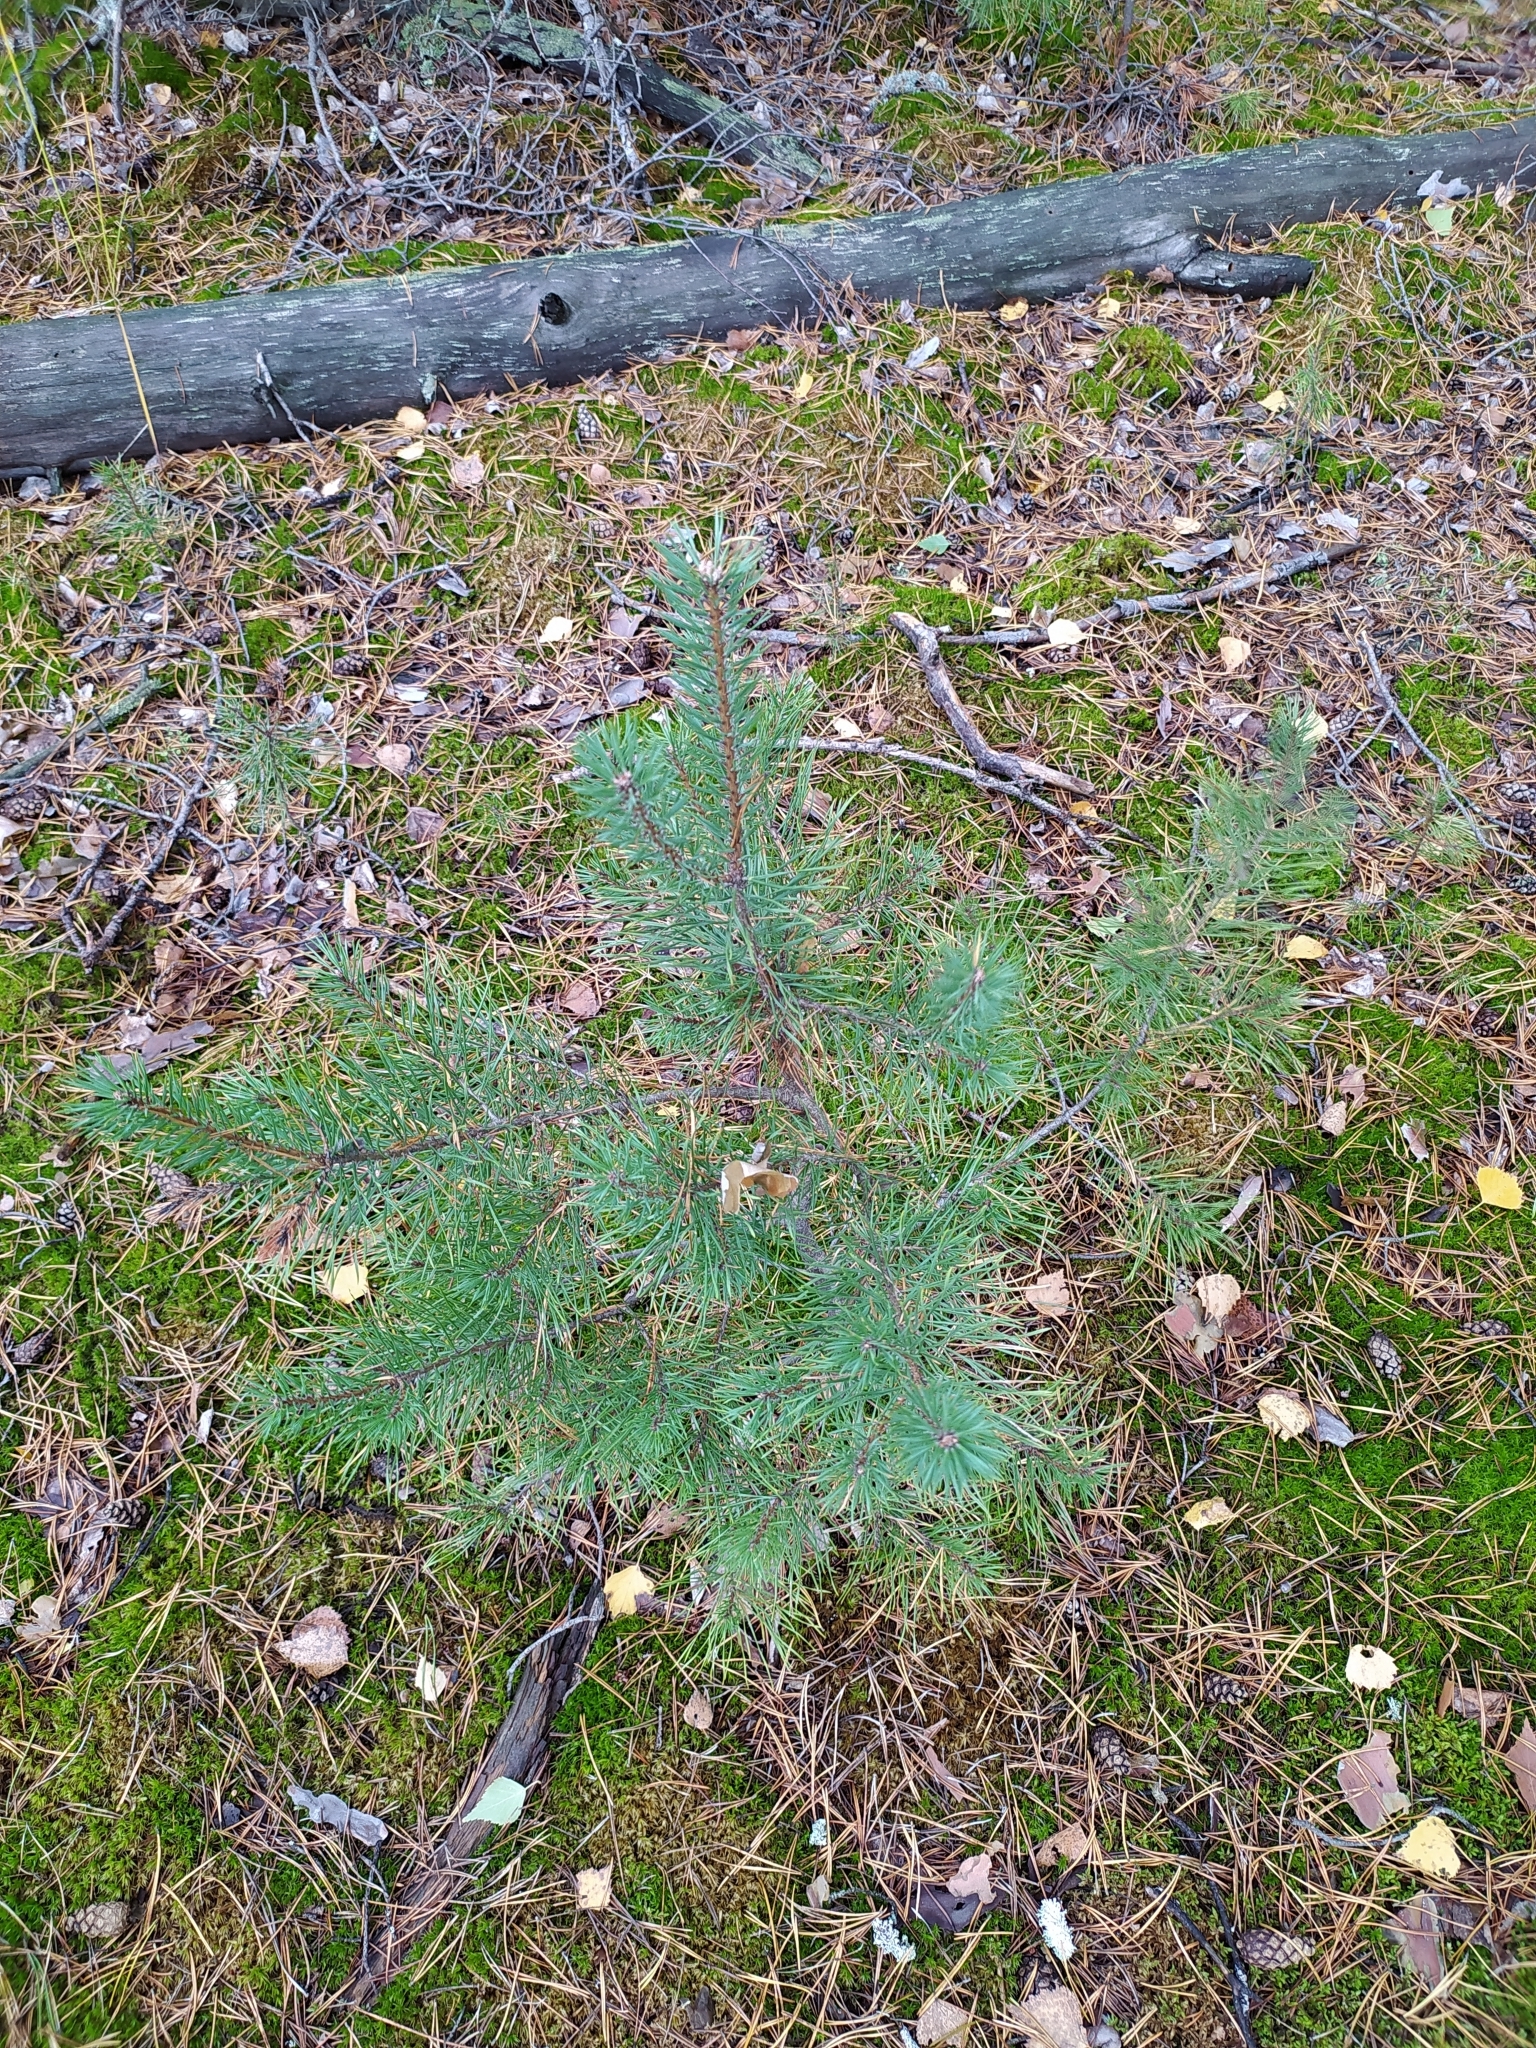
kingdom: Plantae
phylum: Tracheophyta
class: Pinopsida
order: Pinales
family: Pinaceae
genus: Pinus
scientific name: Pinus sylvestris
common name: Scots pine
